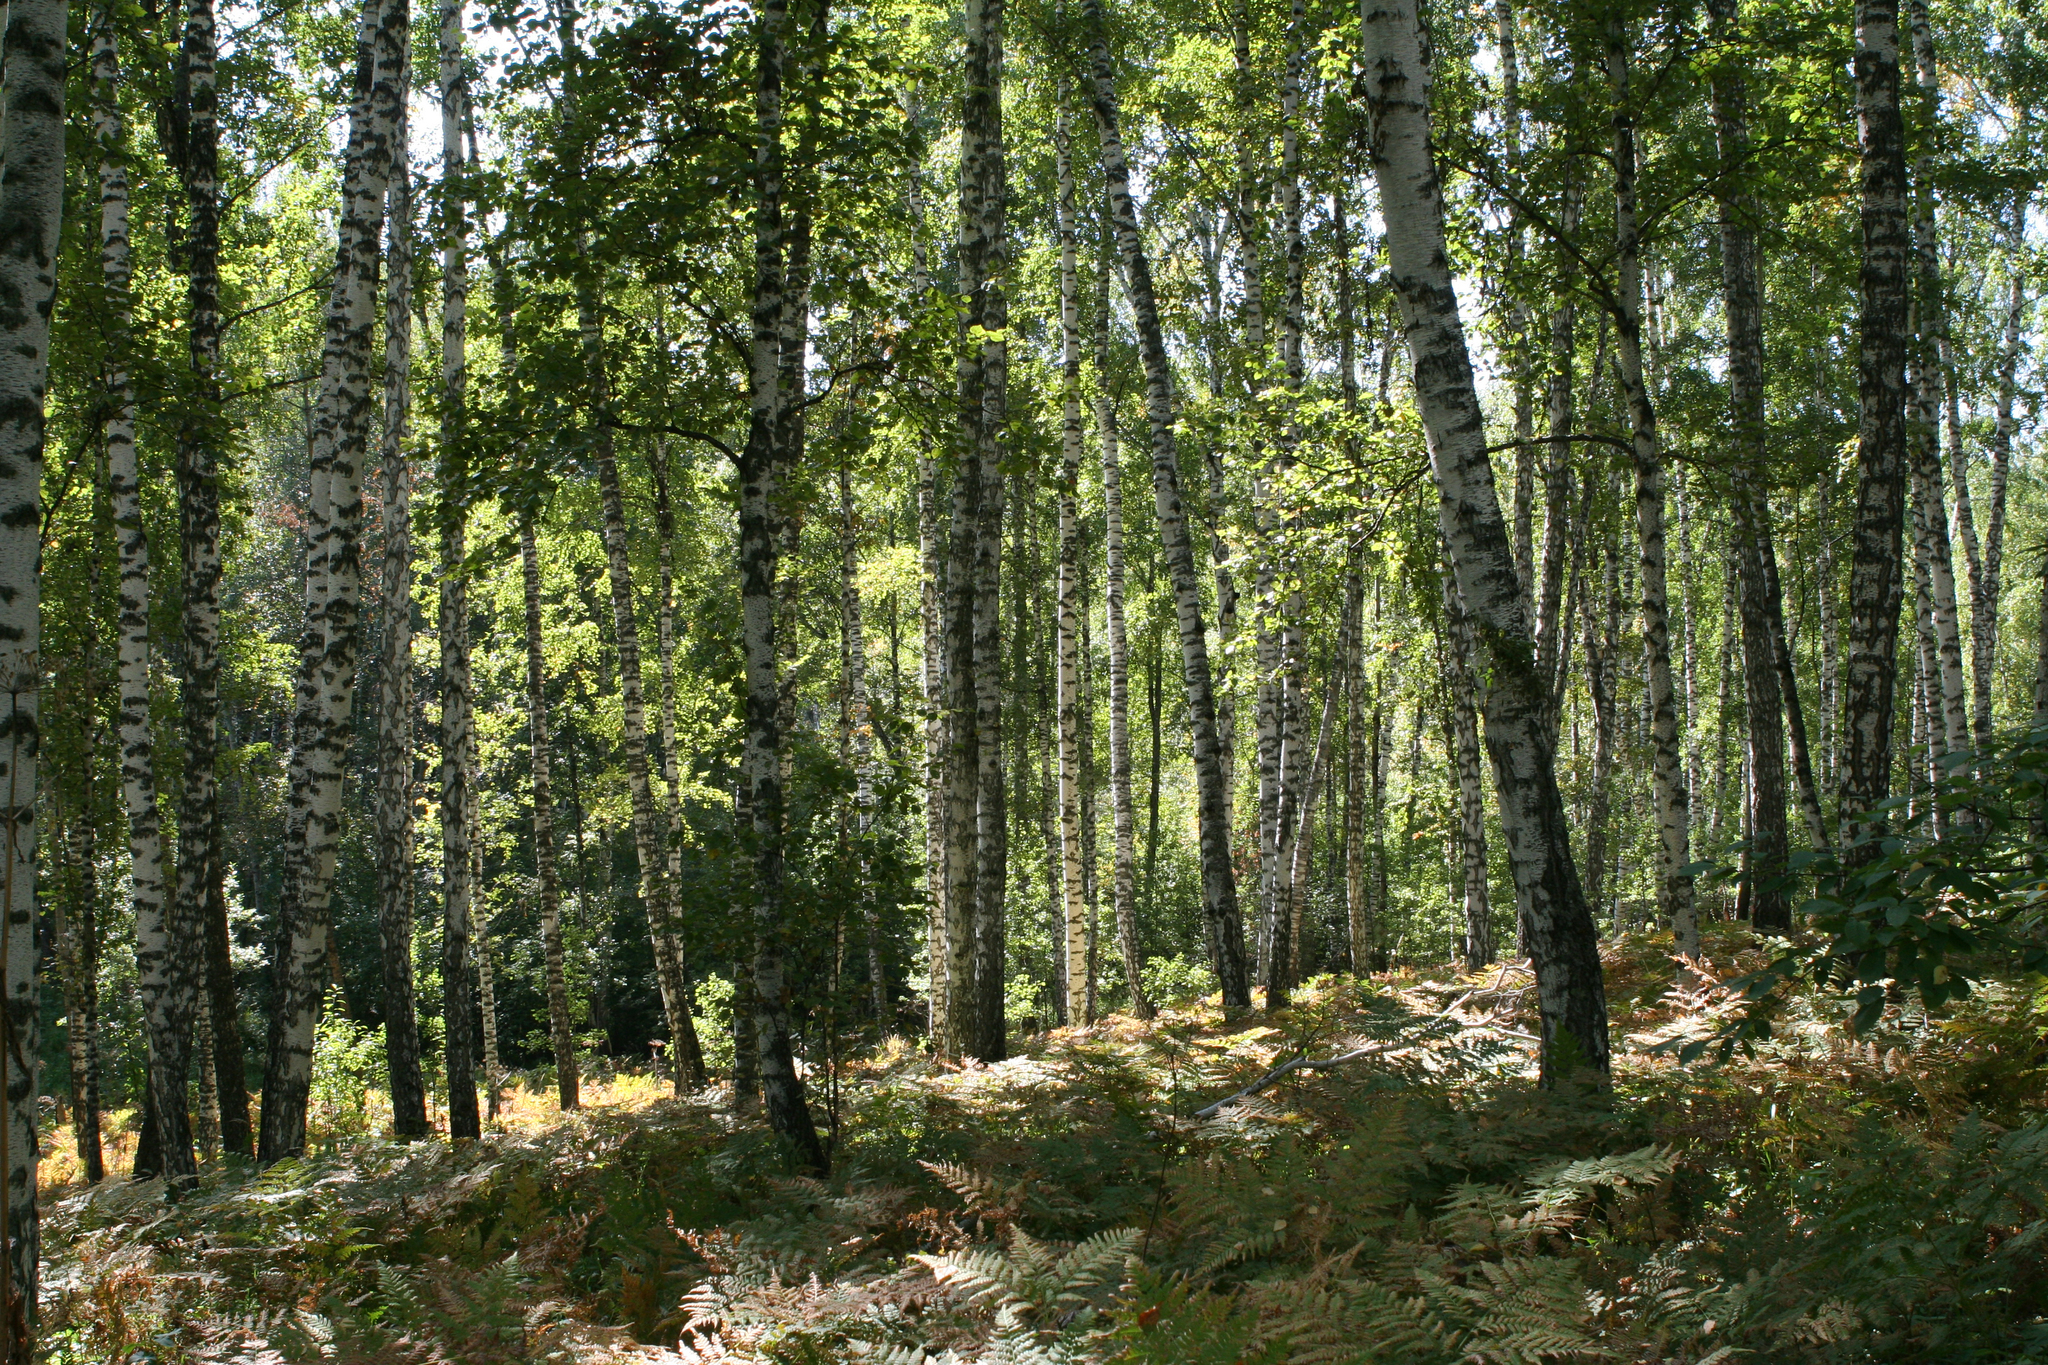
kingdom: Plantae
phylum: Tracheophyta
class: Magnoliopsida
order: Fagales
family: Betulaceae
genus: Betula
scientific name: Betula pendula
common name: Silver birch
